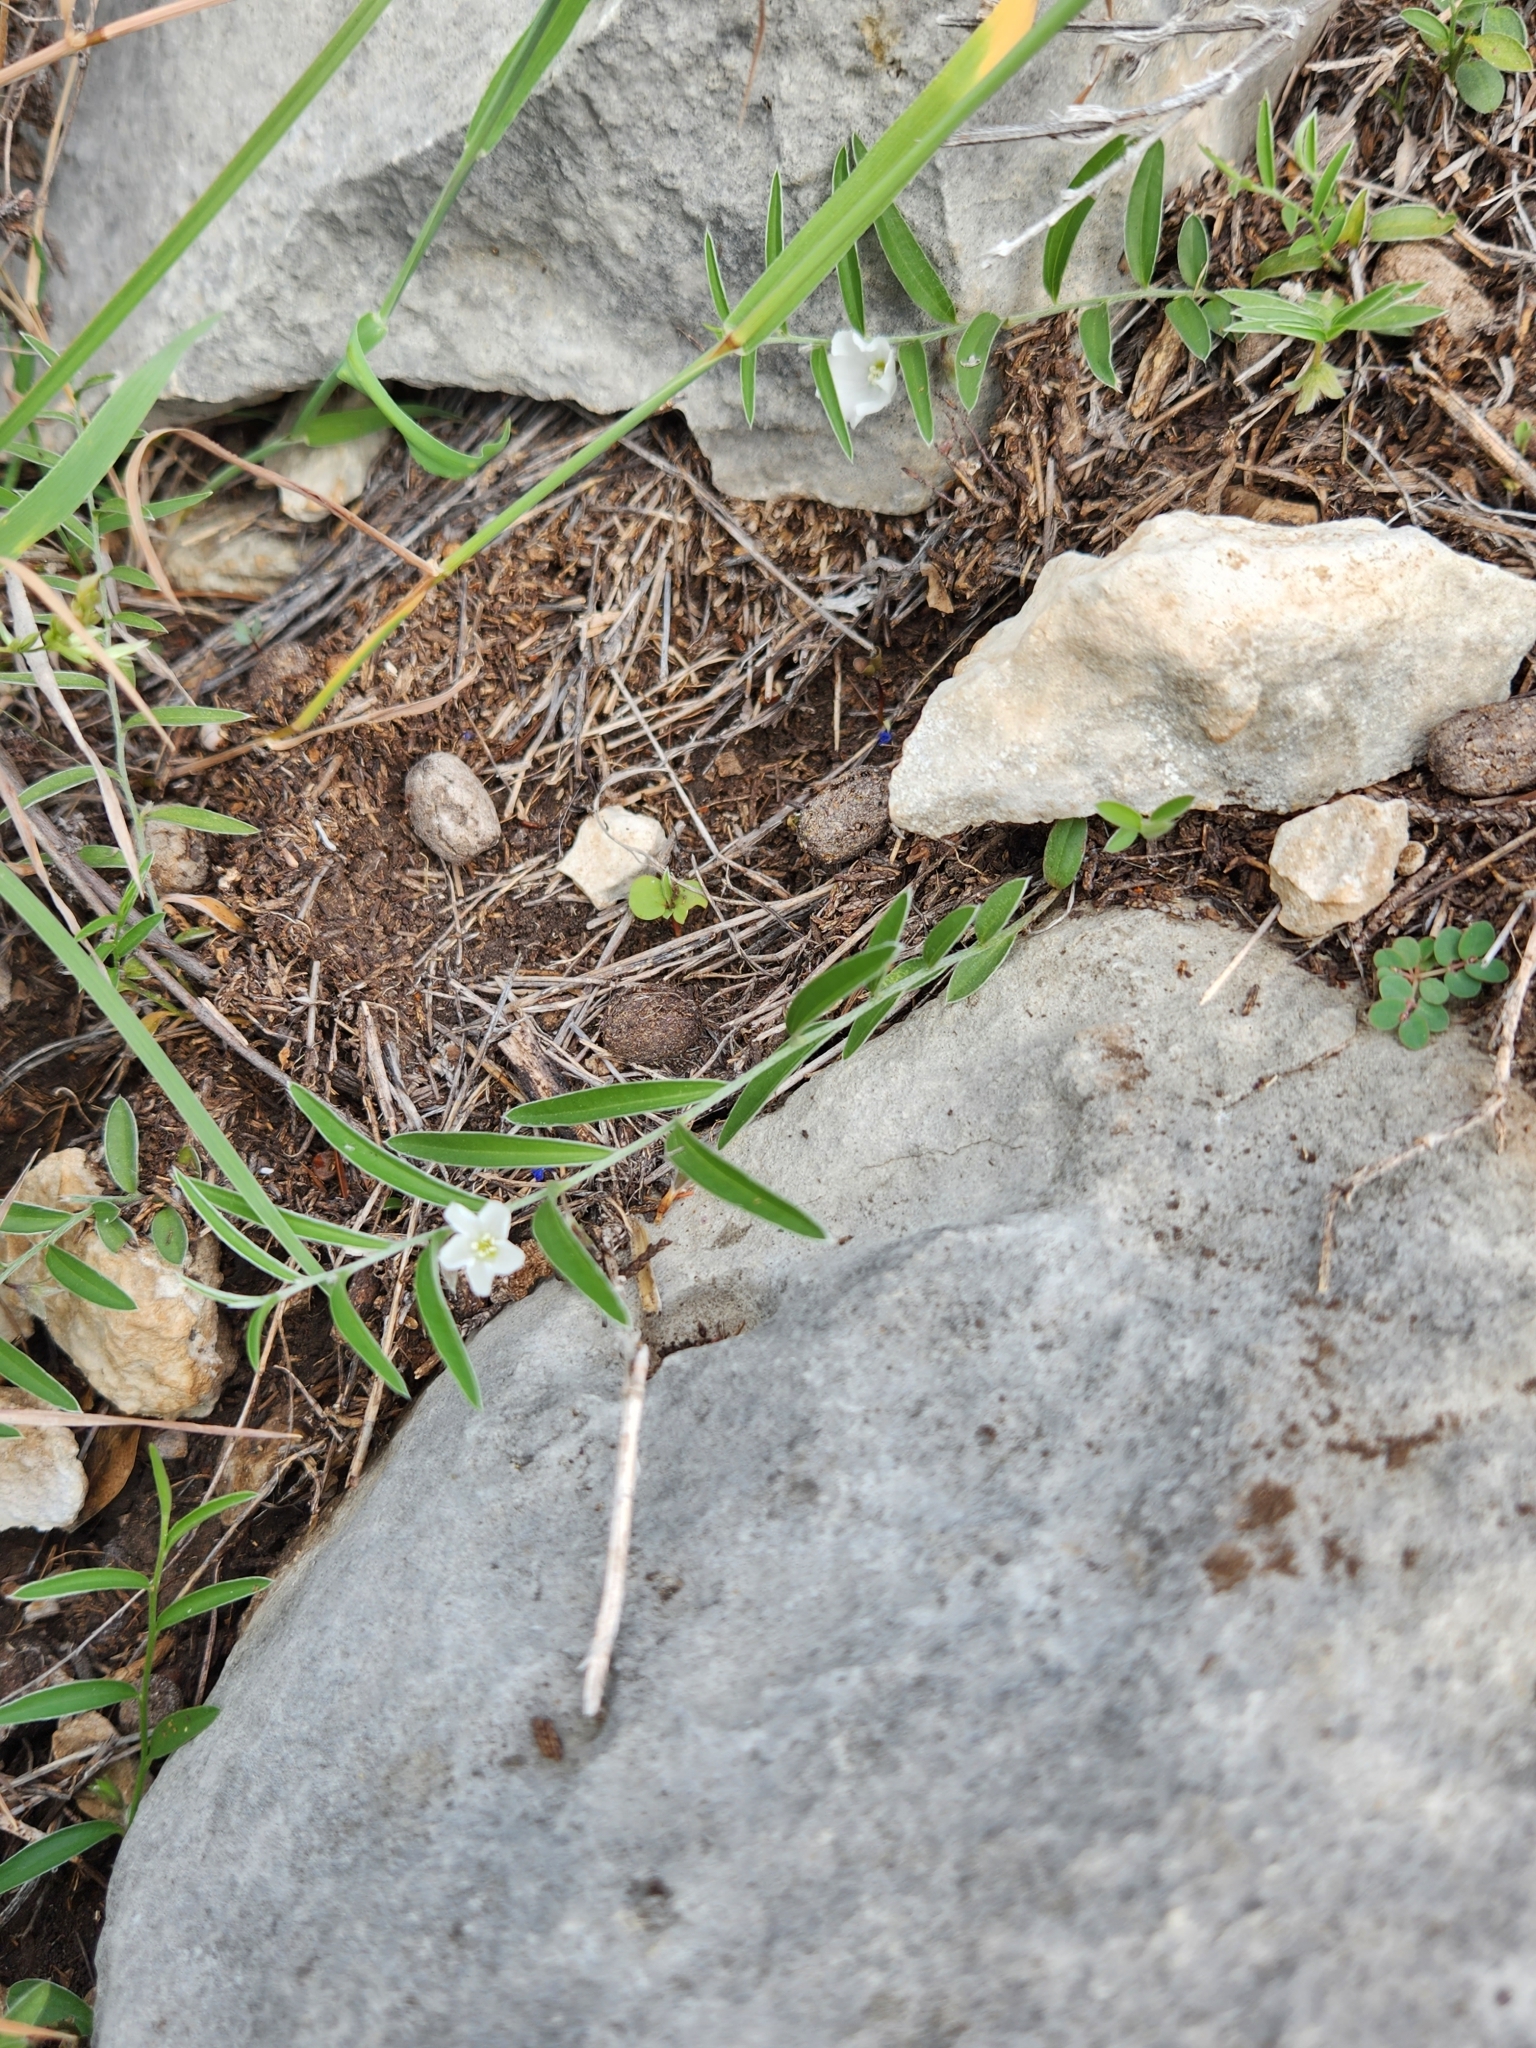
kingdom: Plantae
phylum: Tracheophyta
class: Magnoliopsida
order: Solanales
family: Convolvulaceae
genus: Evolvulus
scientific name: Evolvulus sericeus
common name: Blue dots
